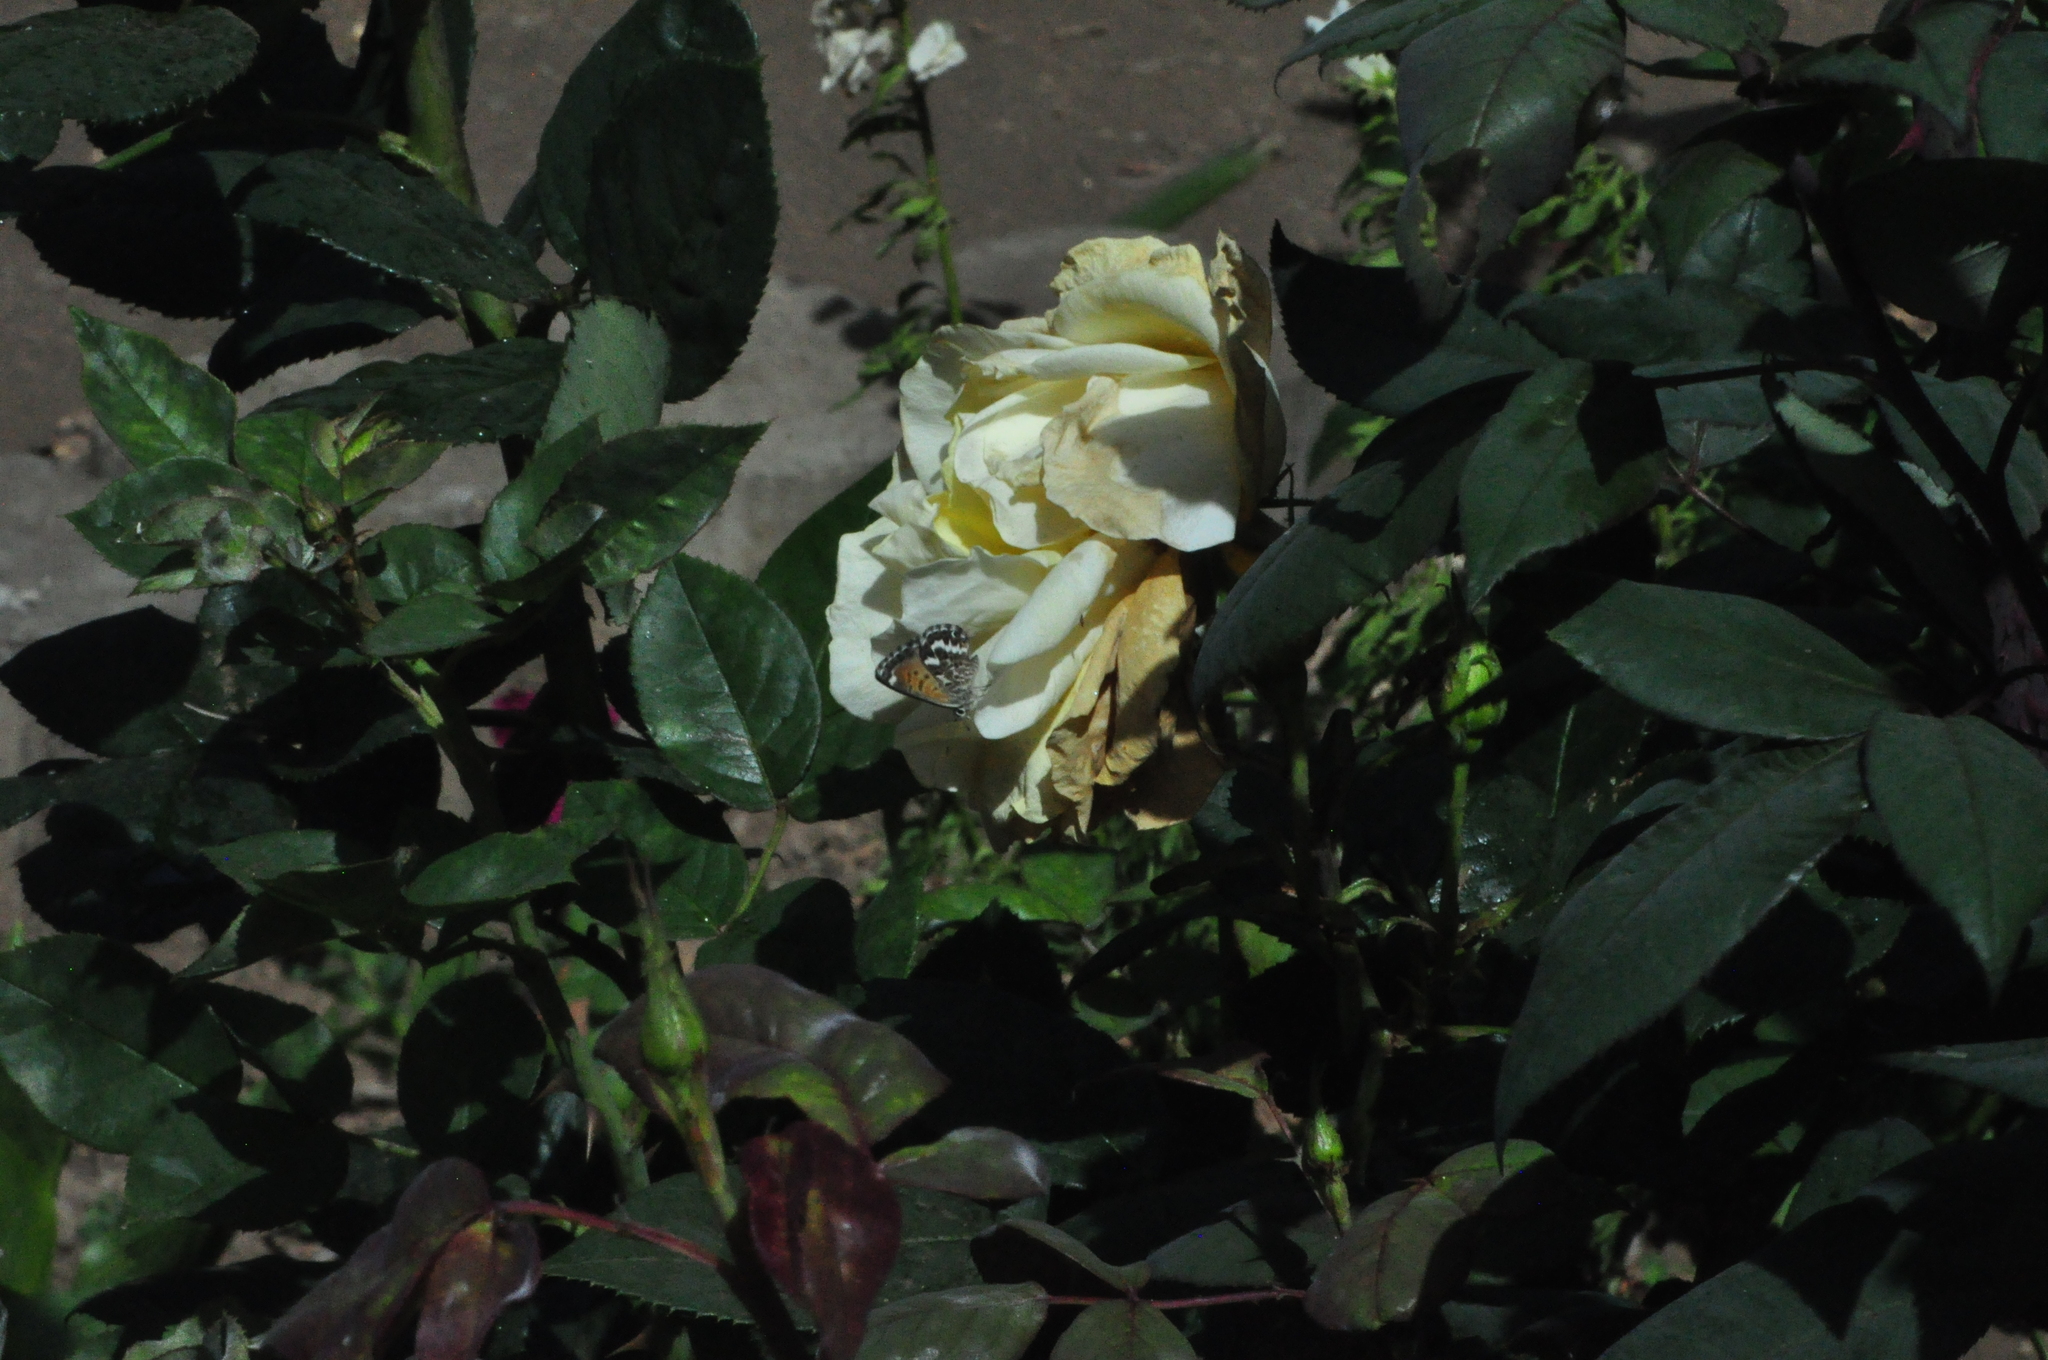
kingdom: Animalia
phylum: Arthropoda
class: Insecta
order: Lepidoptera
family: Lycaenidae
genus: Cyclyrius
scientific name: Cyclyrius webbianus
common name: Canary blue
